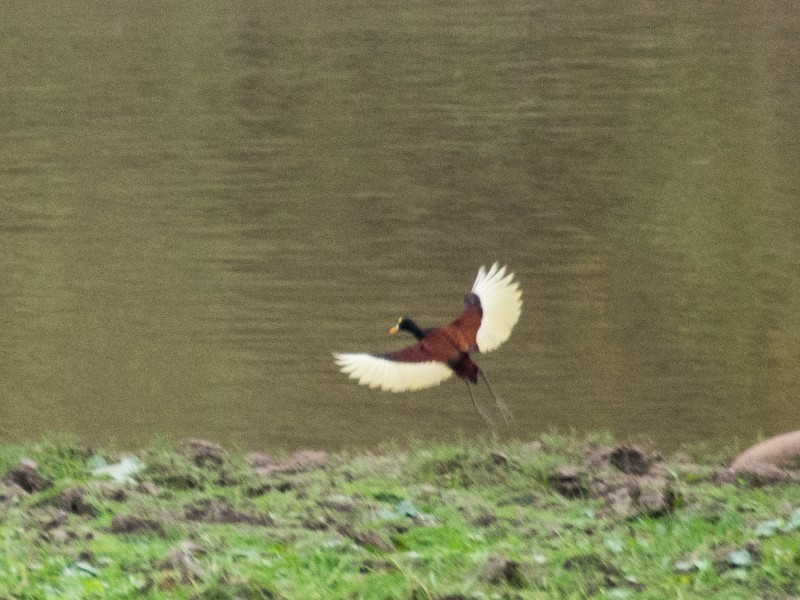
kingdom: Animalia
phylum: Chordata
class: Aves
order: Charadriiformes
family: Jacanidae
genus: Jacana
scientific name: Jacana spinosa
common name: Northern jacana
